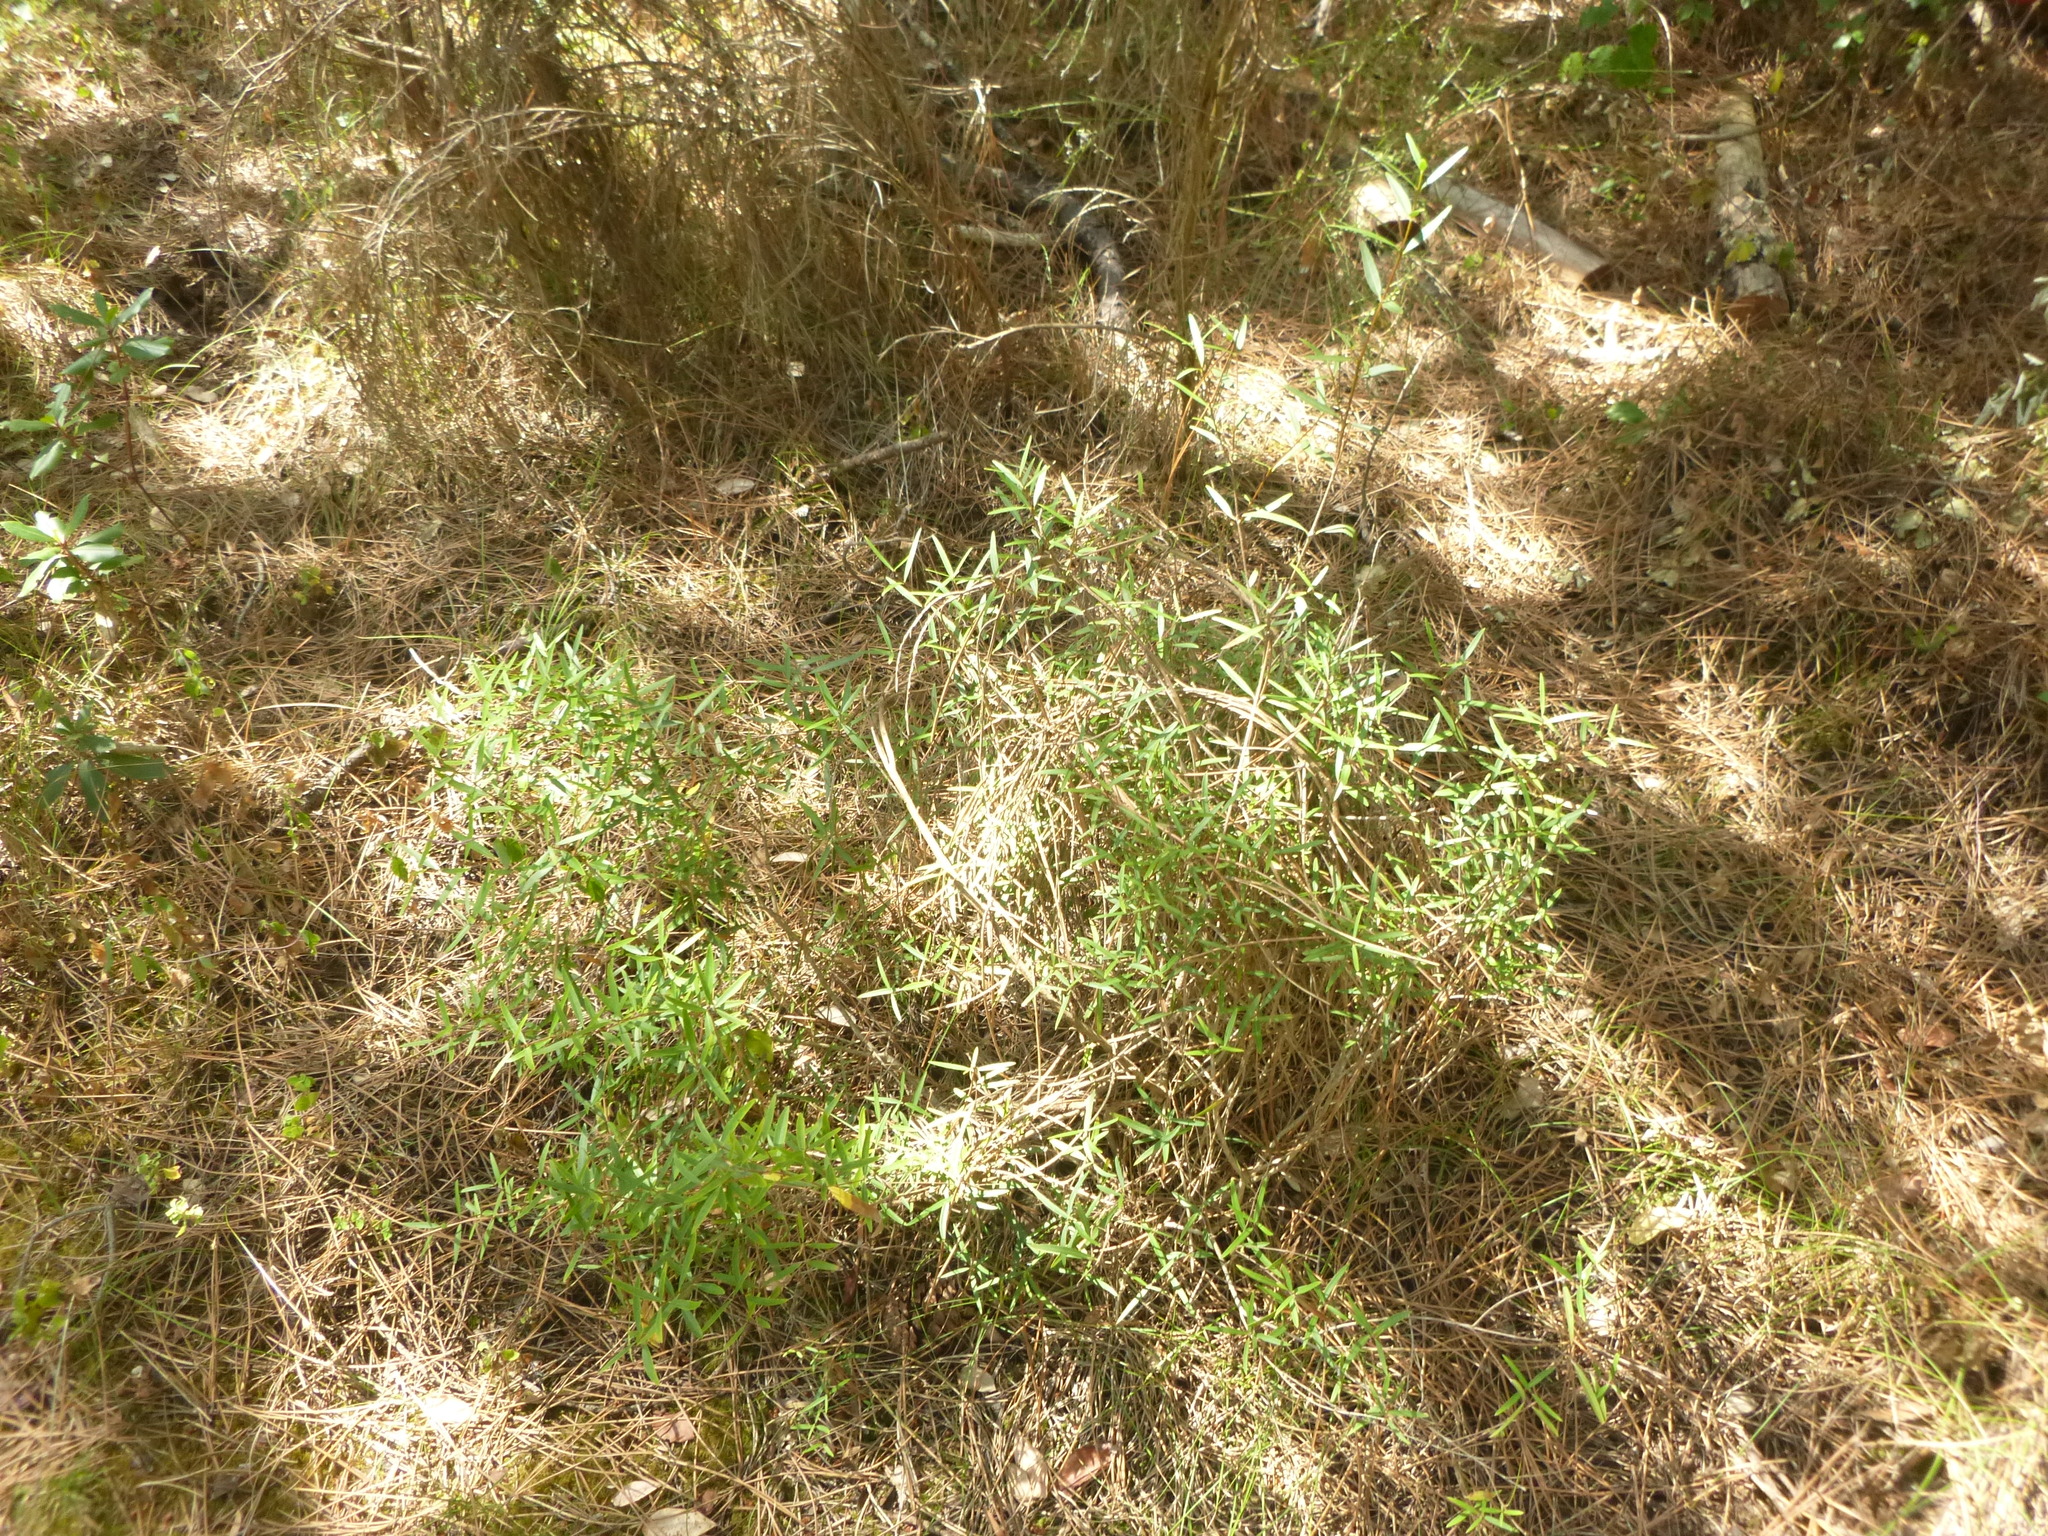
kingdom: Plantae
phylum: Tracheophyta
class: Magnoliopsida
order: Lamiales
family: Oleaceae
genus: Phillyrea
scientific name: Phillyrea angustifolia
